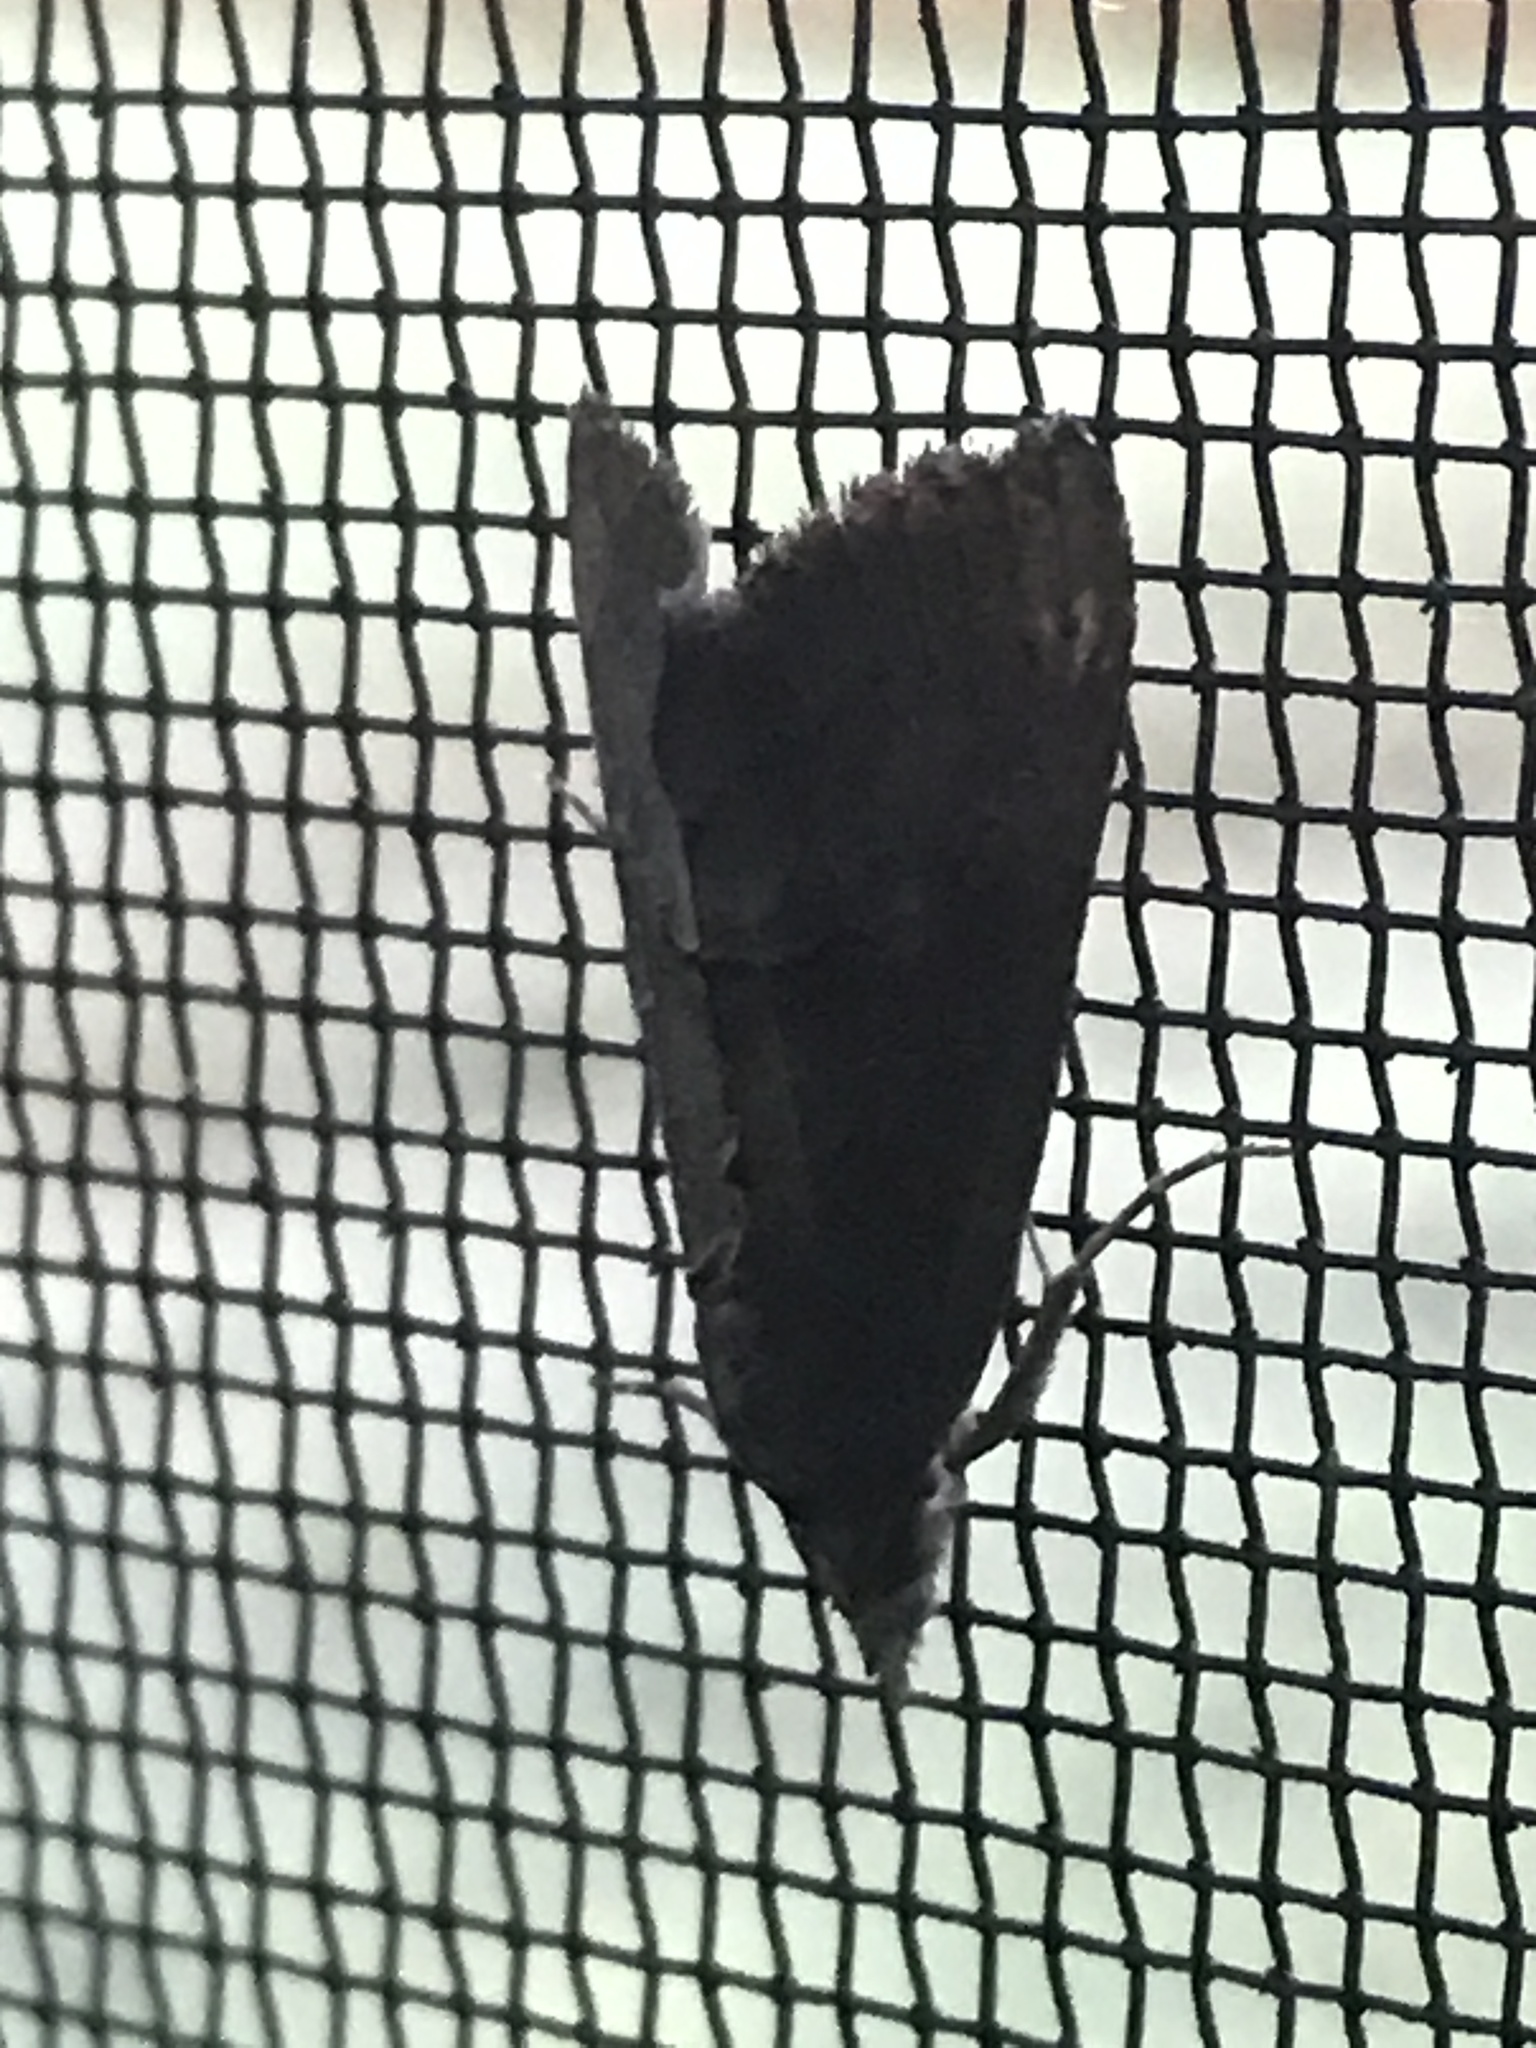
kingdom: Animalia
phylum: Arthropoda
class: Insecta
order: Lepidoptera
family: Erebidae
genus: Hypena
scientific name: Hypena scabra
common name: Green cloverworm
